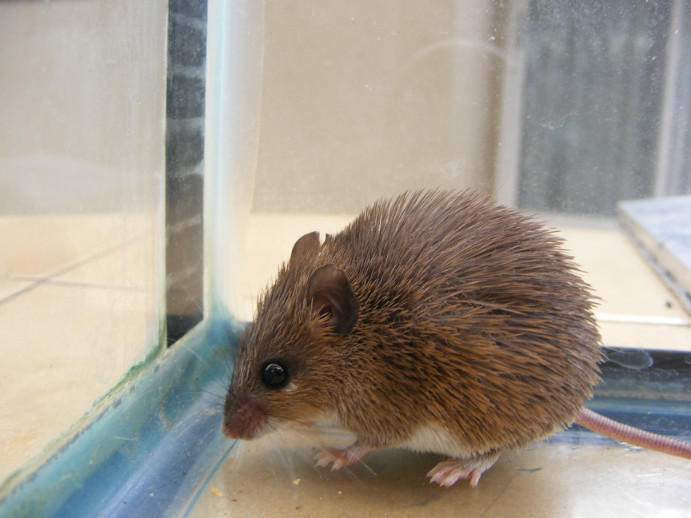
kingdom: Animalia
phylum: Chordata
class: Mammalia
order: Rodentia
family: Muridae
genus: Acomys
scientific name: Acomys selousi
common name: Selous’s spiny mouse
